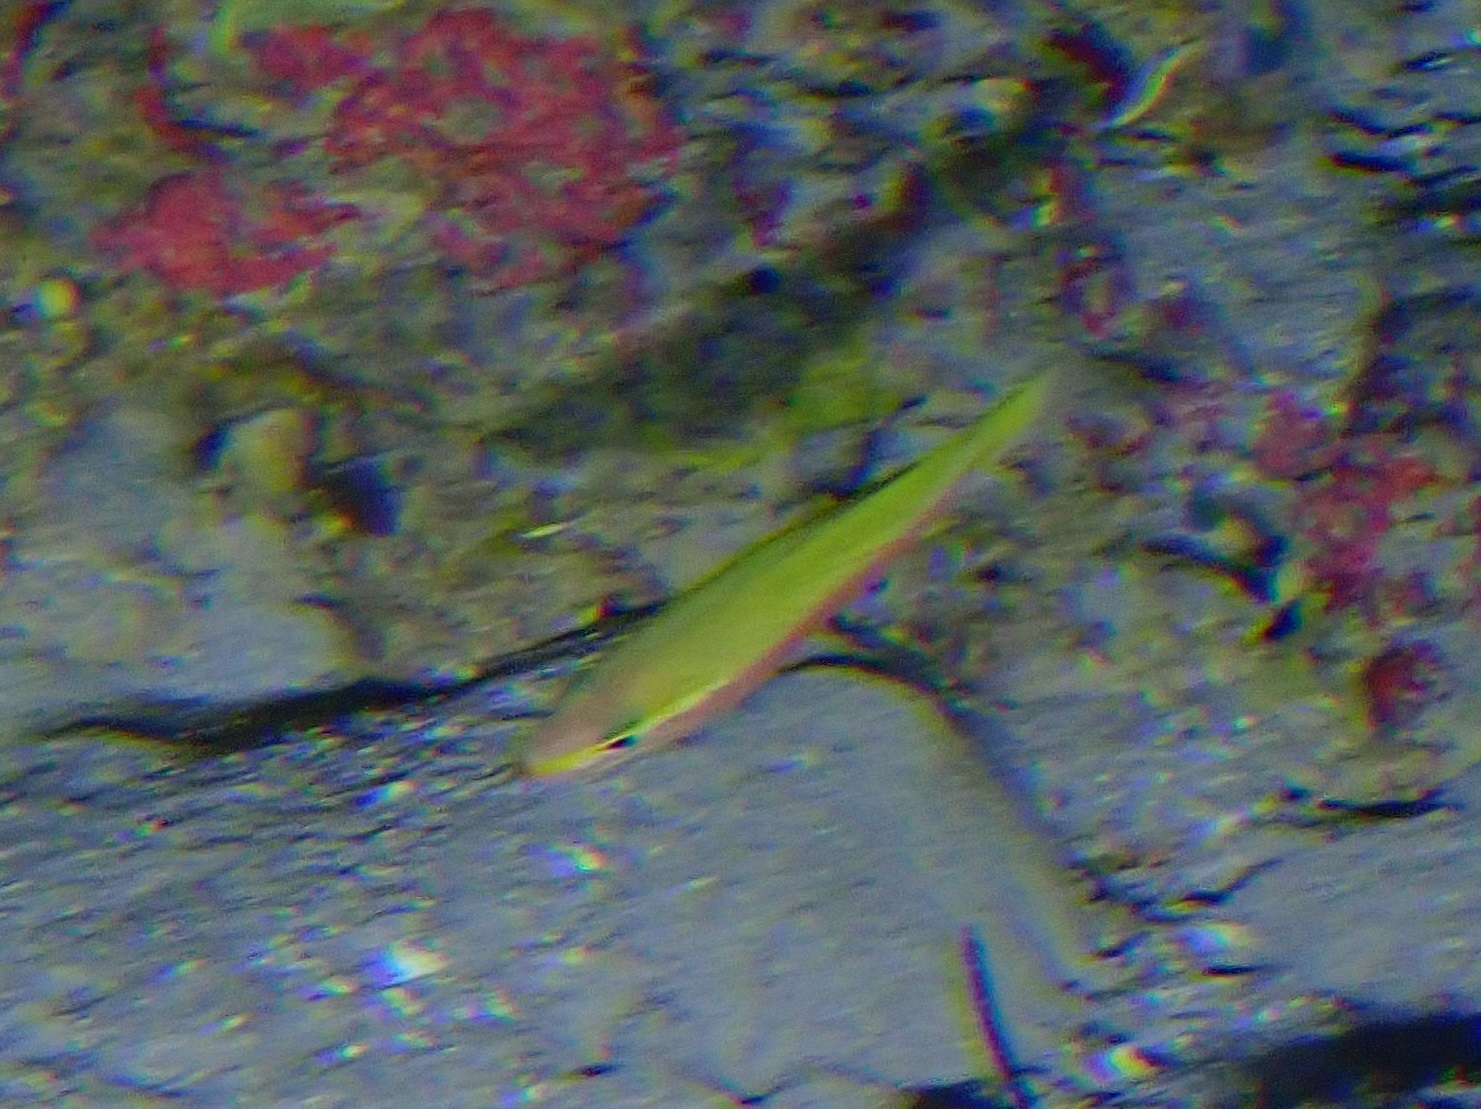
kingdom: Animalia
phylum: Chordata
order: Perciformes
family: Serranidae
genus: Liopropoma
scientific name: Liopropoma aberrans
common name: Eyestripe bass
